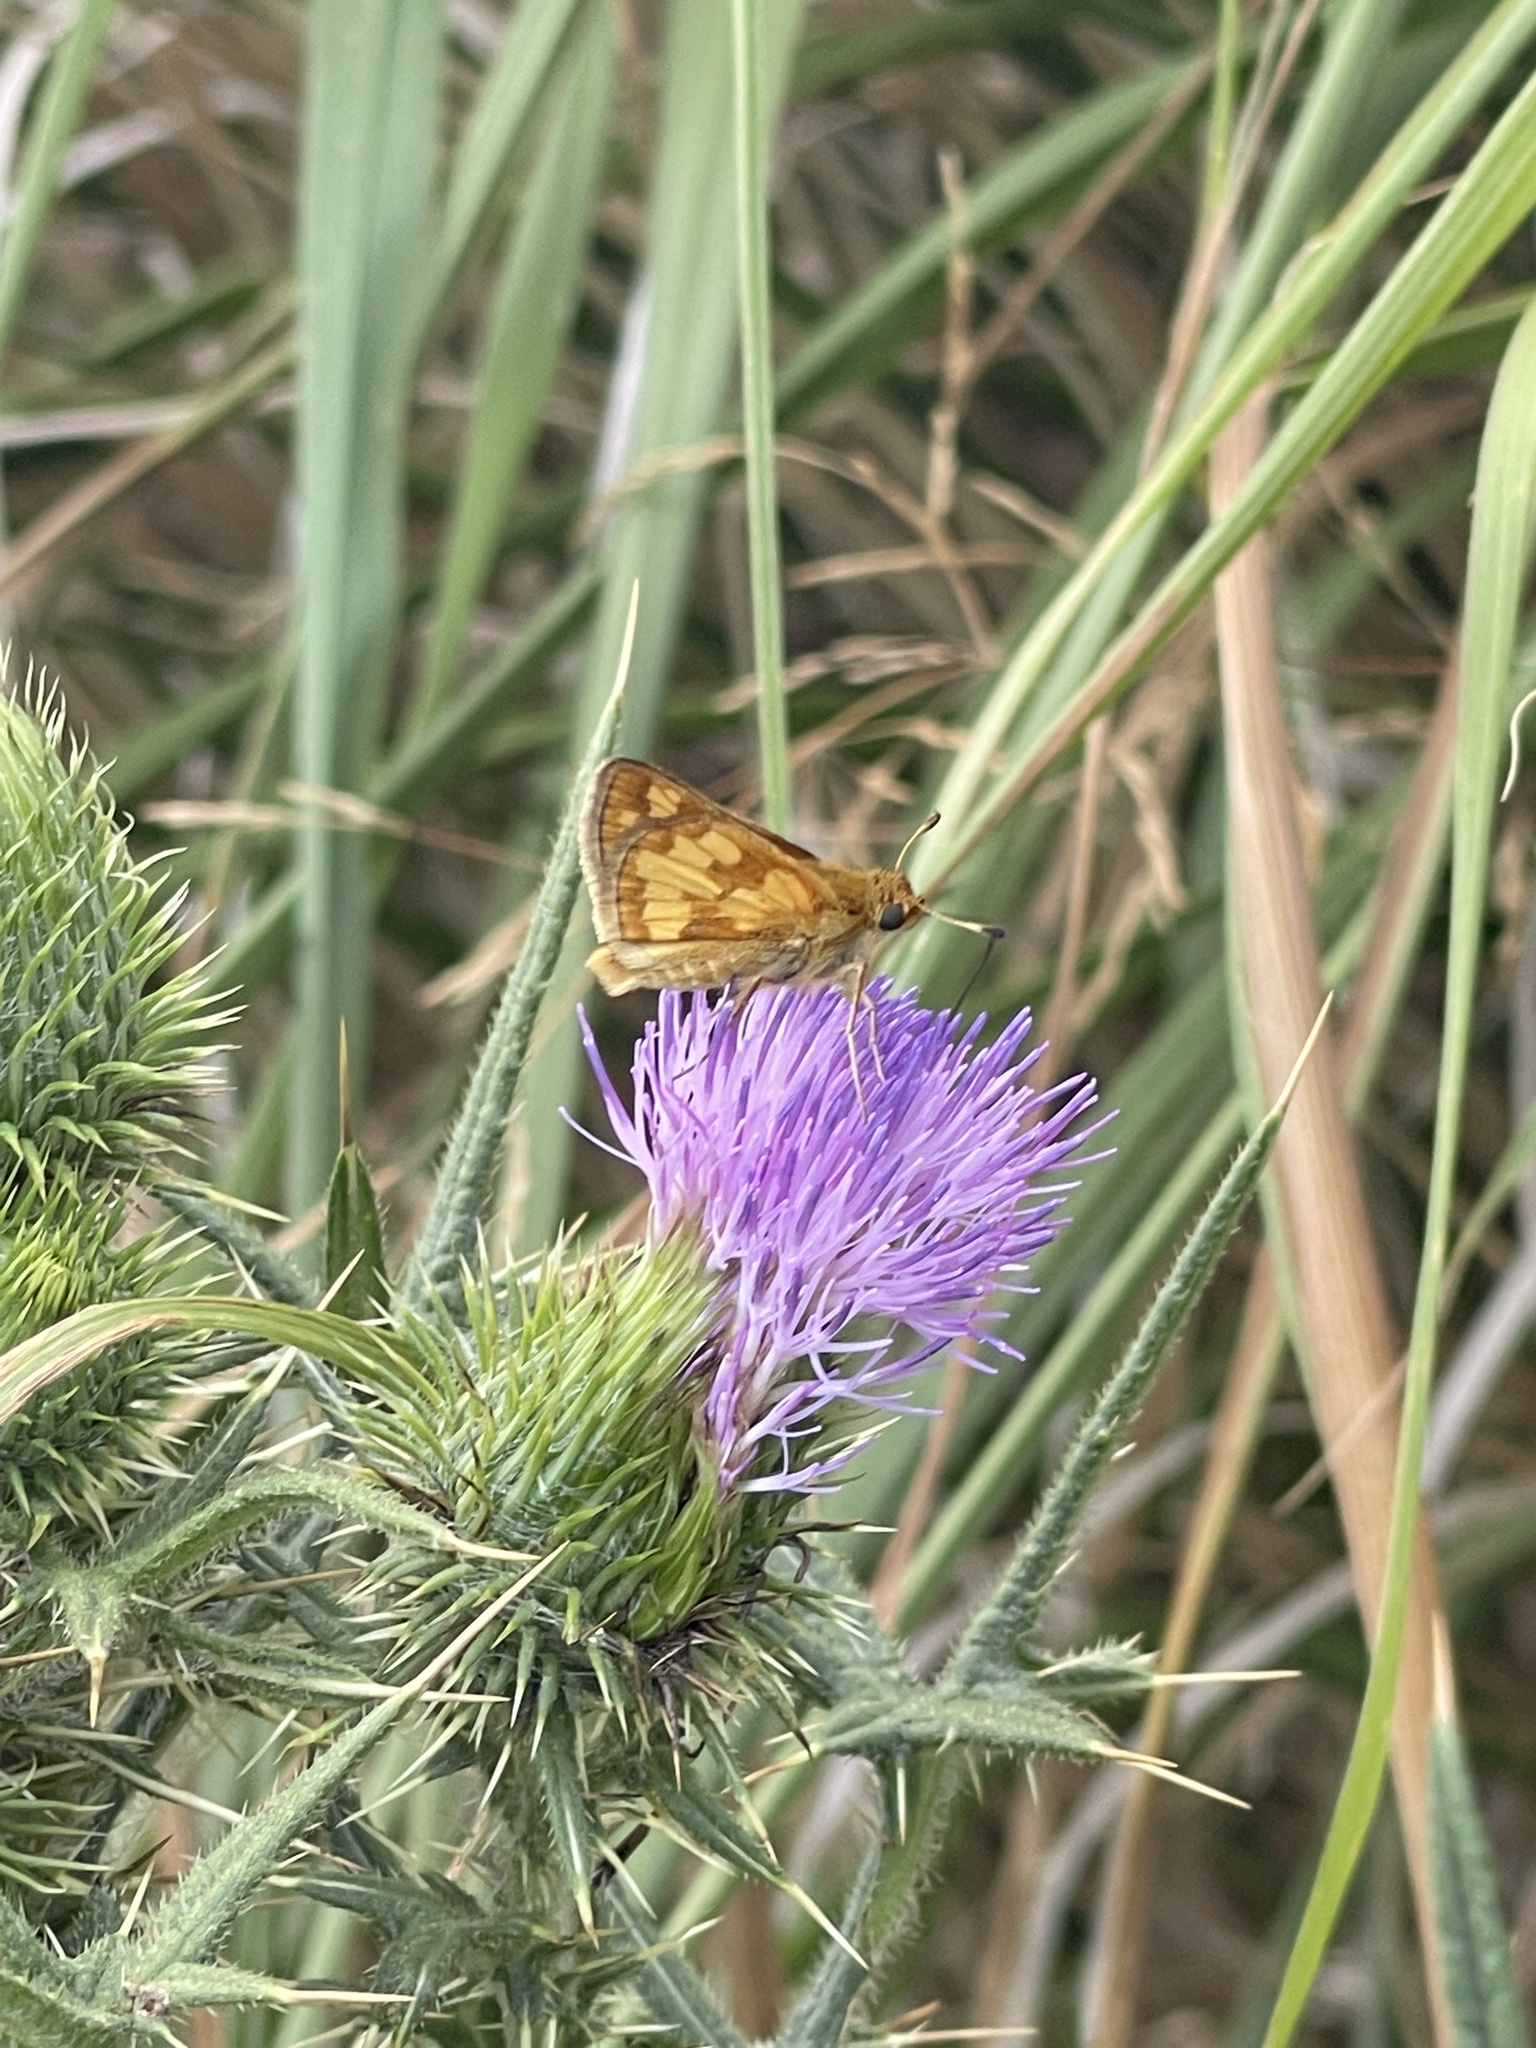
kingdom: Animalia
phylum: Arthropoda
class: Insecta
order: Lepidoptera
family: Hesperiidae
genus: Polites
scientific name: Polites coras
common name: Peck's skipper
